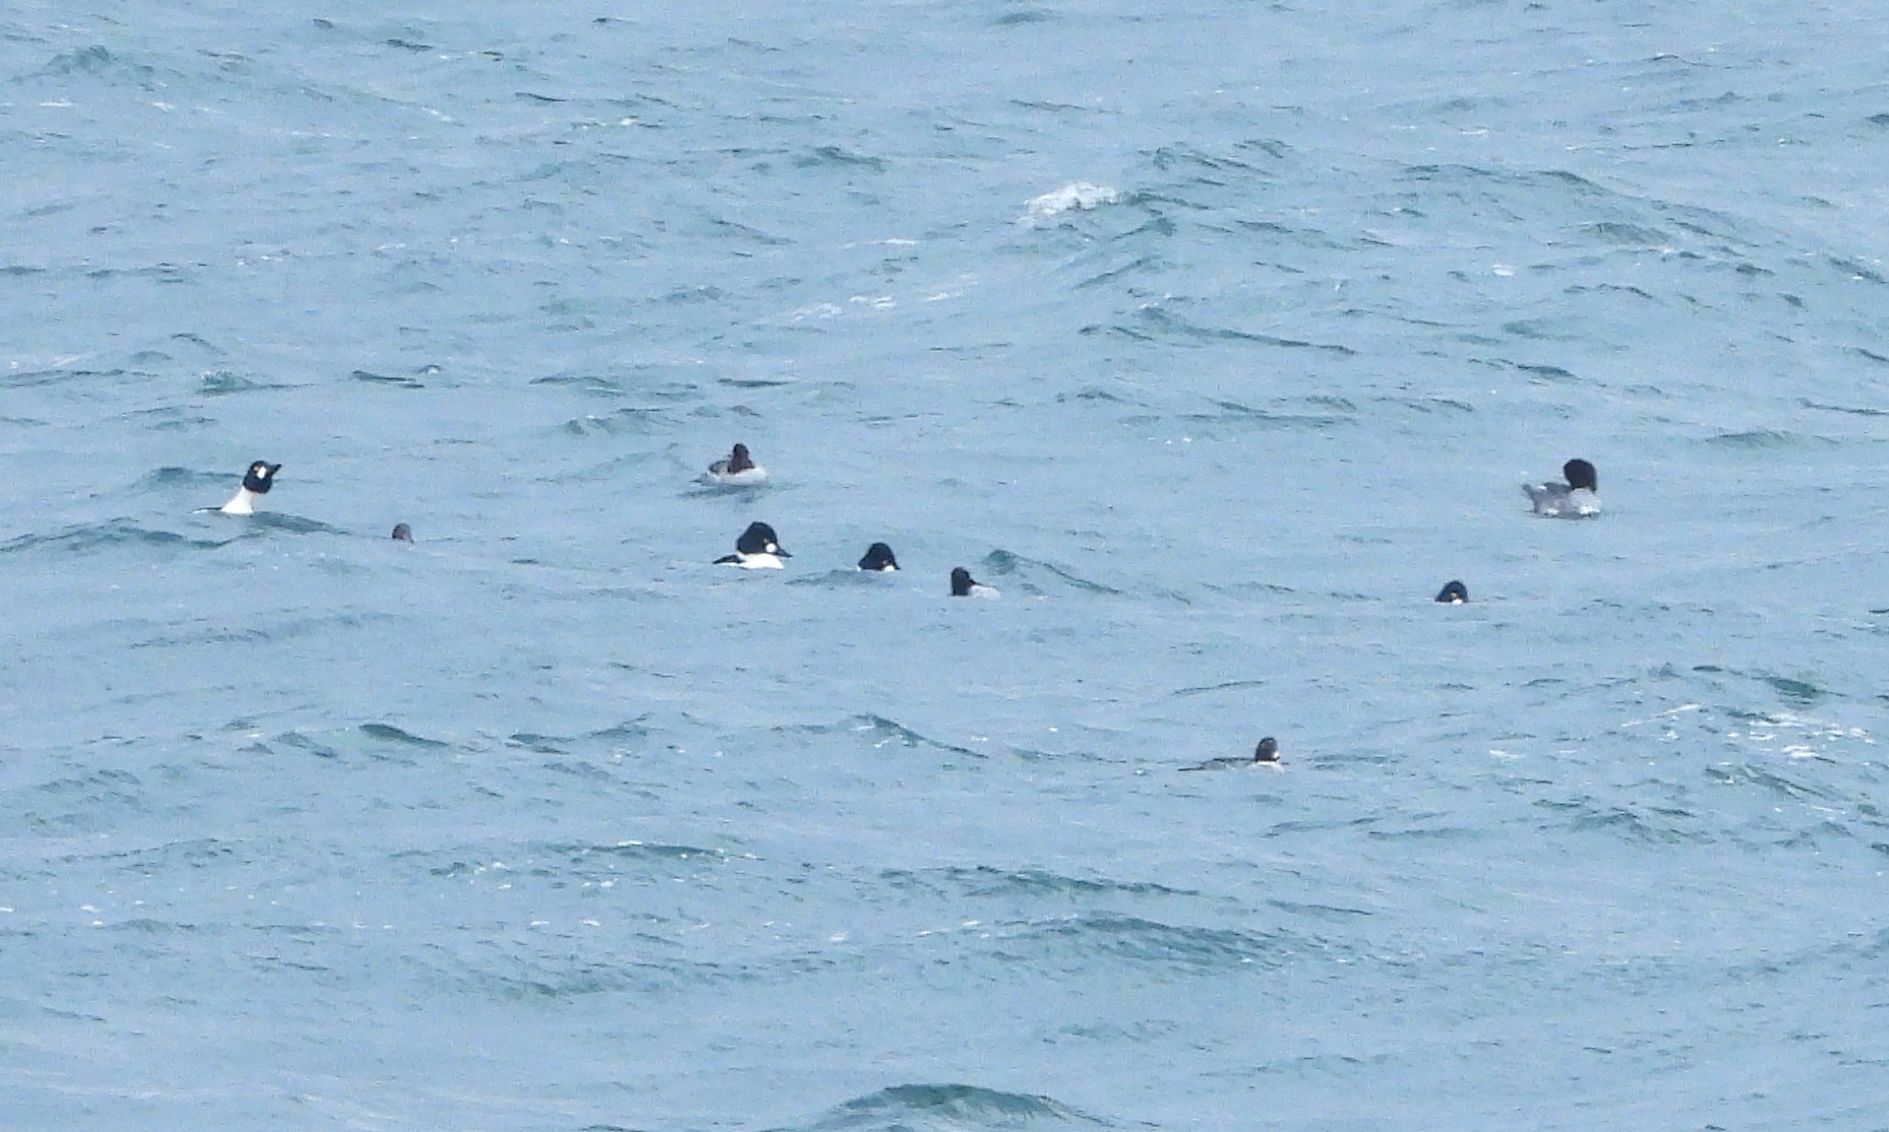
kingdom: Animalia
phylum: Chordata
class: Aves
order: Anseriformes
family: Anatidae
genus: Bucephala
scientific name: Bucephala clangula
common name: Common goldeneye
